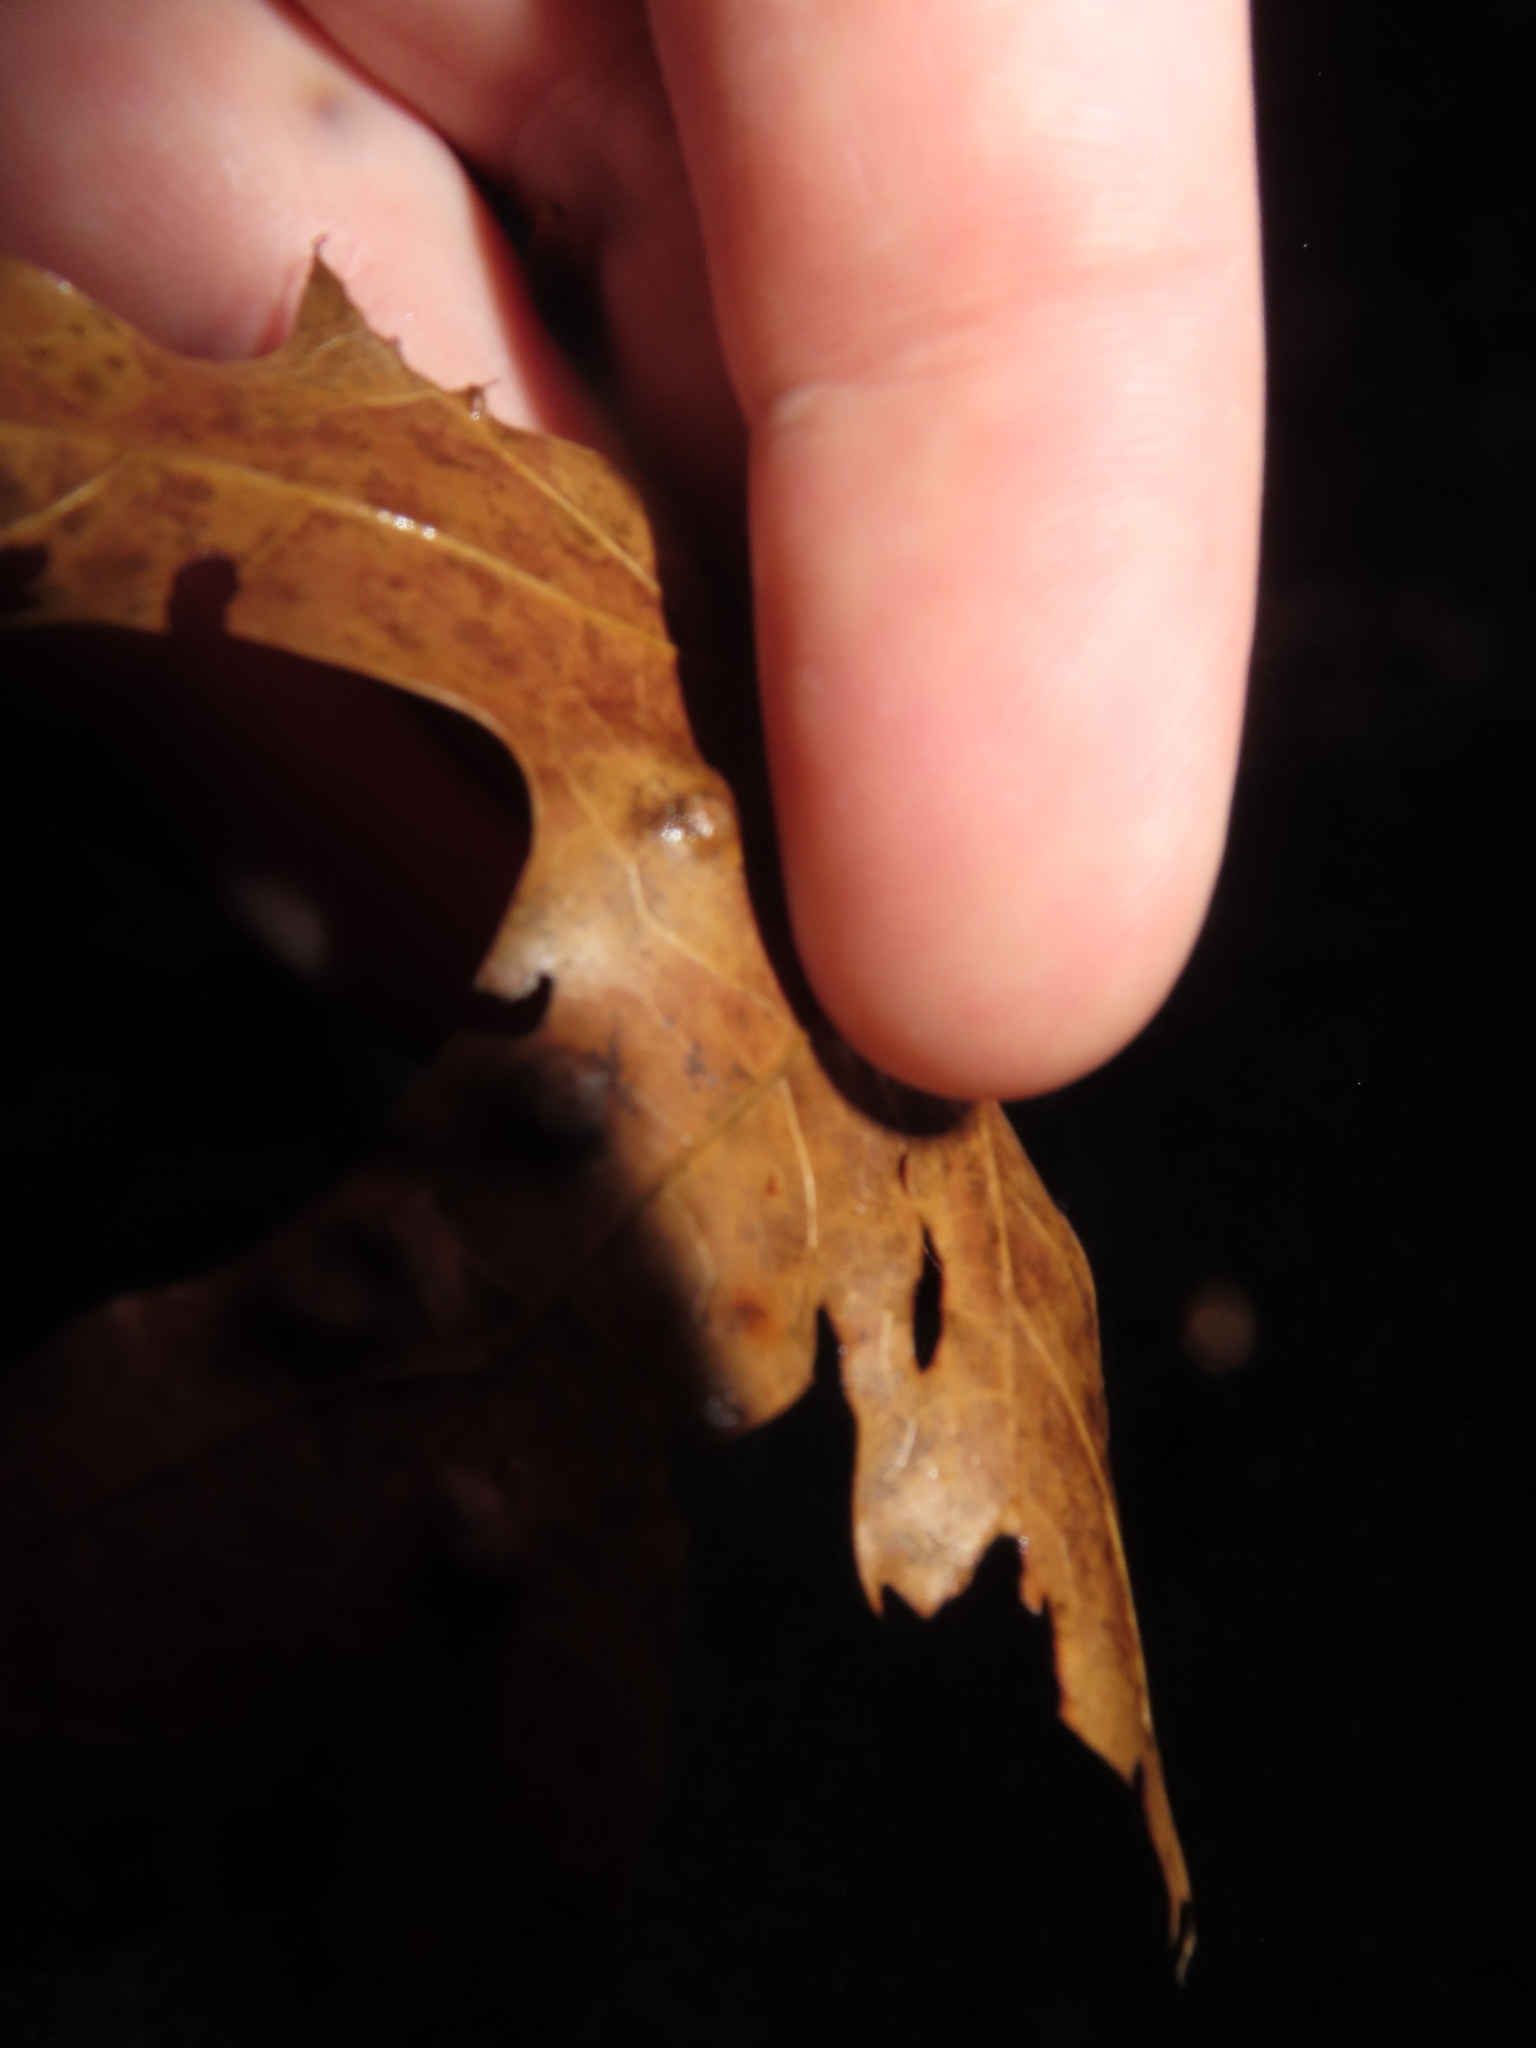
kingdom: Animalia
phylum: Arthropoda
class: Insecta
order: Diptera
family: Cecidomyiidae
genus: Polystepha
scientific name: Polystepha pilulae
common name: Oak leaf gall midge
